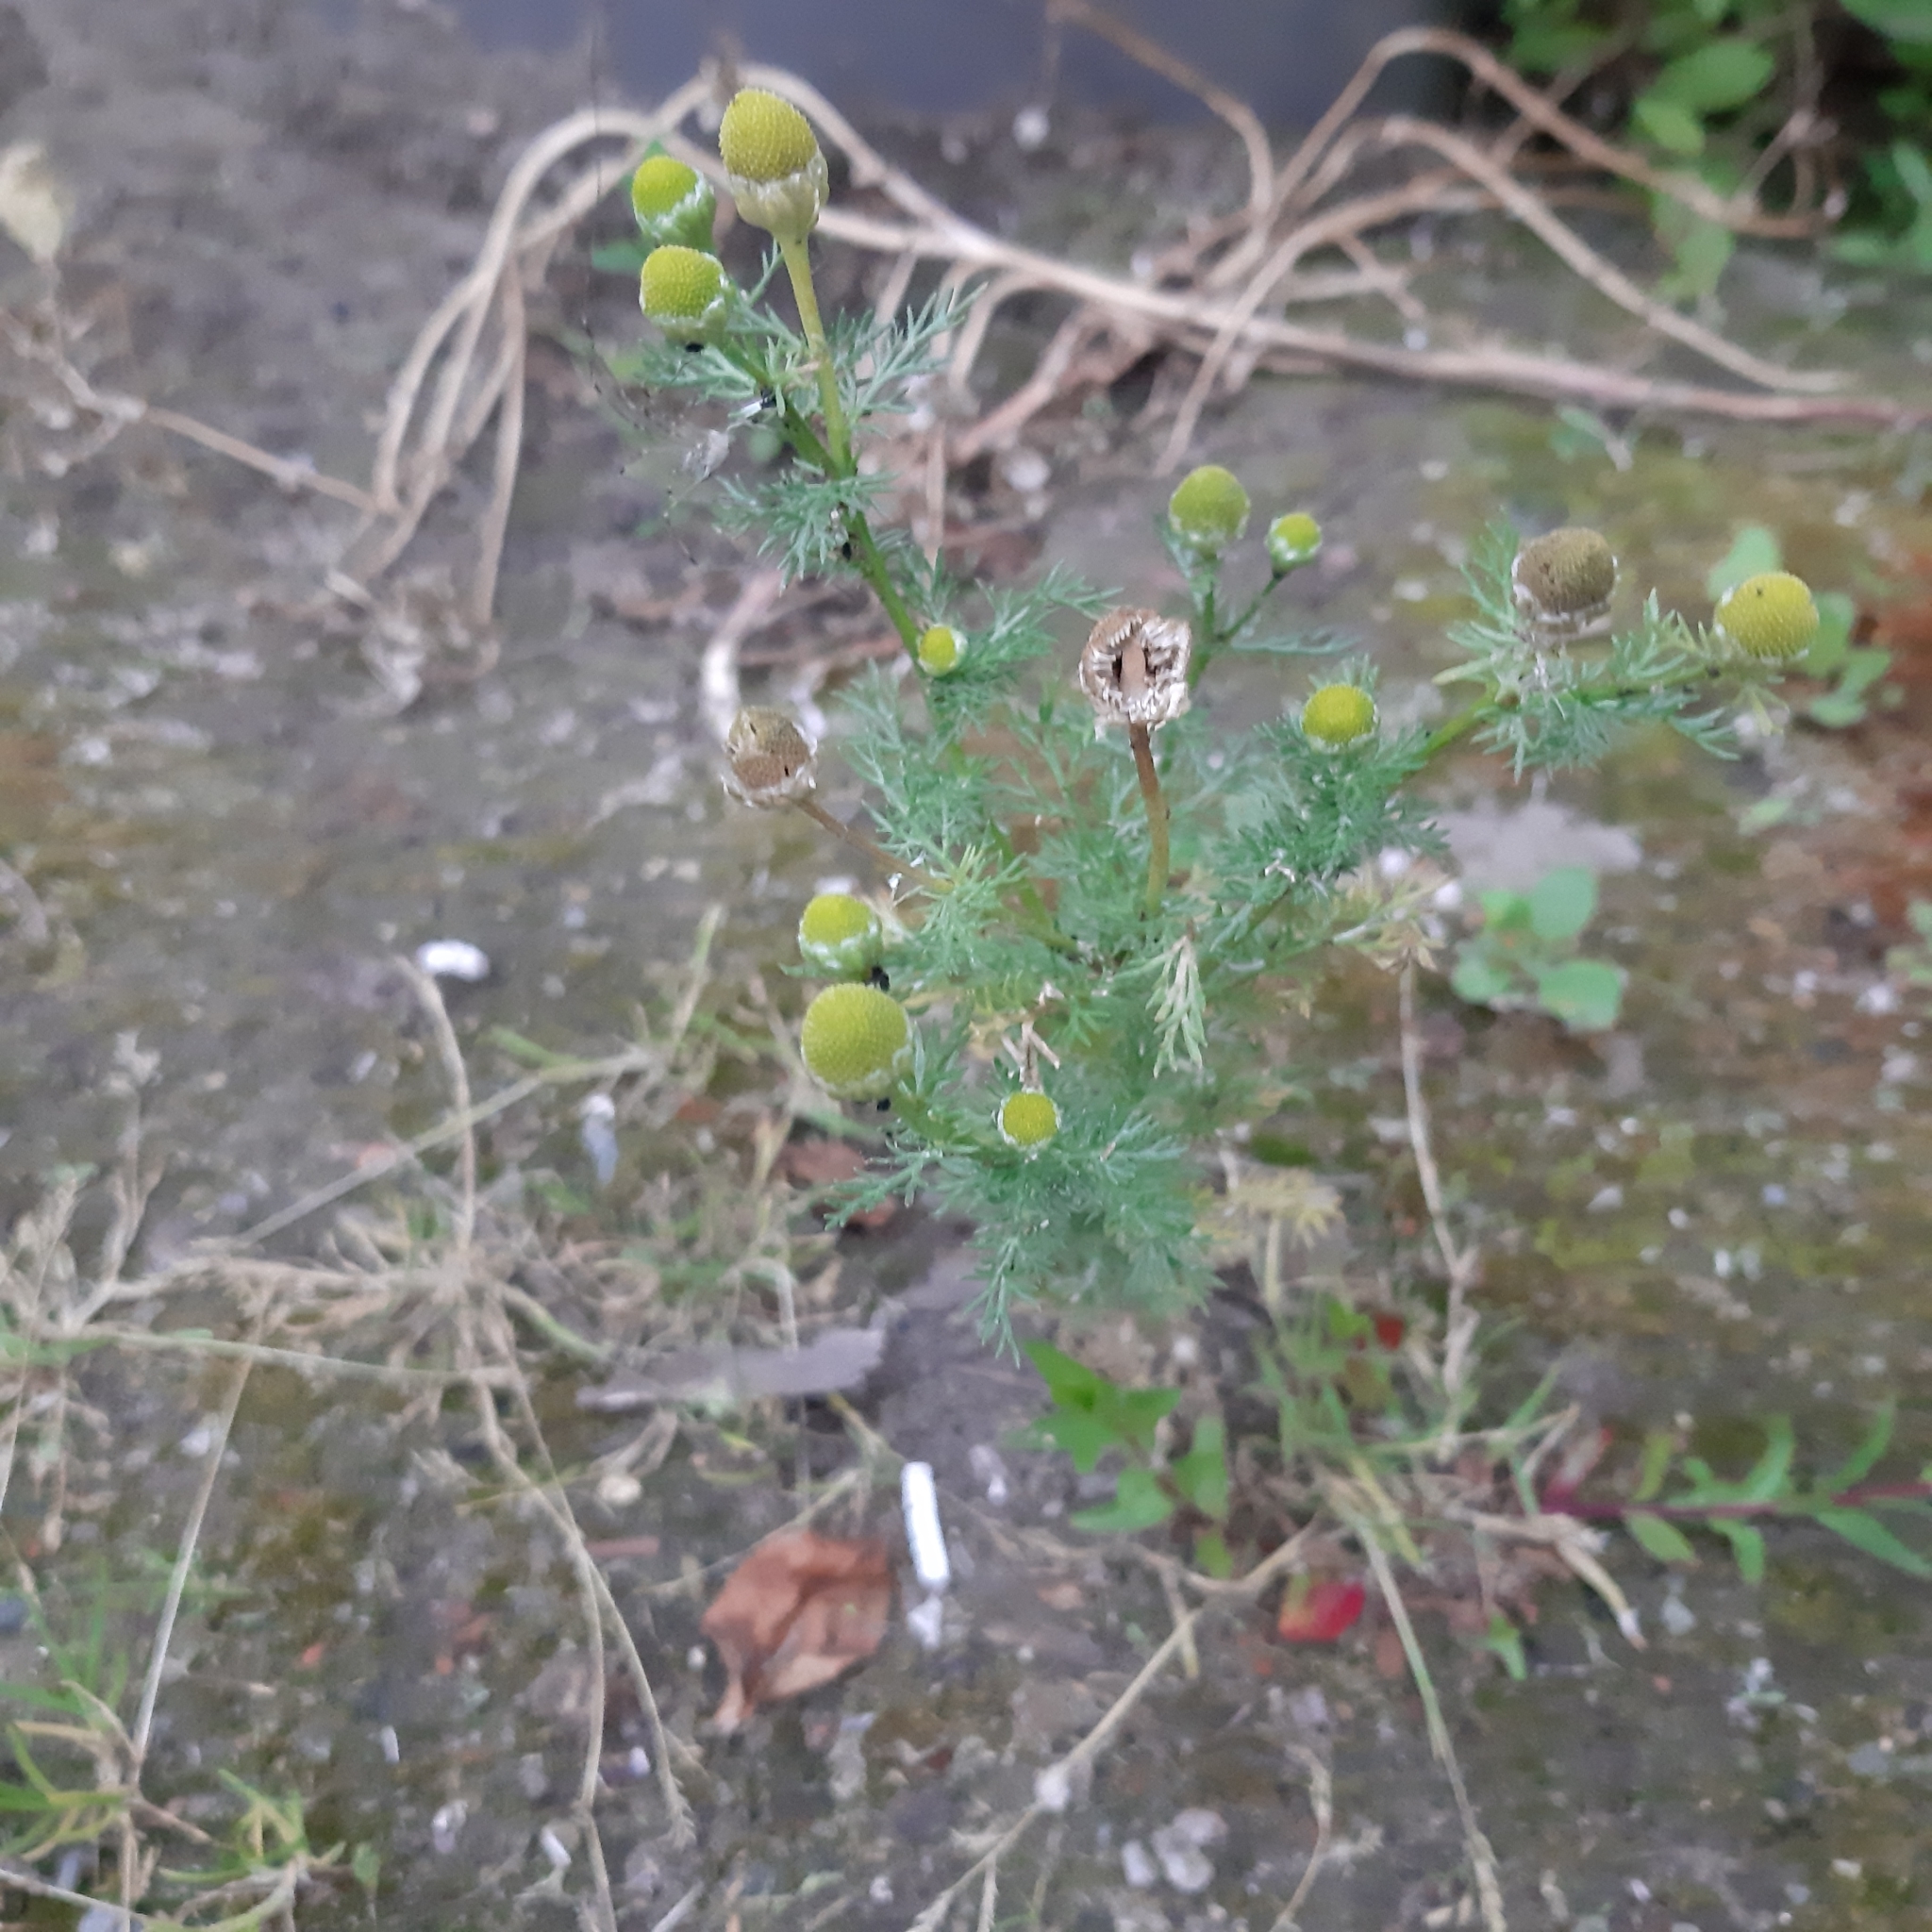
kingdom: Plantae
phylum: Tracheophyta
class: Magnoliopsida
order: Asterales
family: Asteraceae
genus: Matricaria
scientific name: Matricaria discoidea
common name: Disc mayweed
